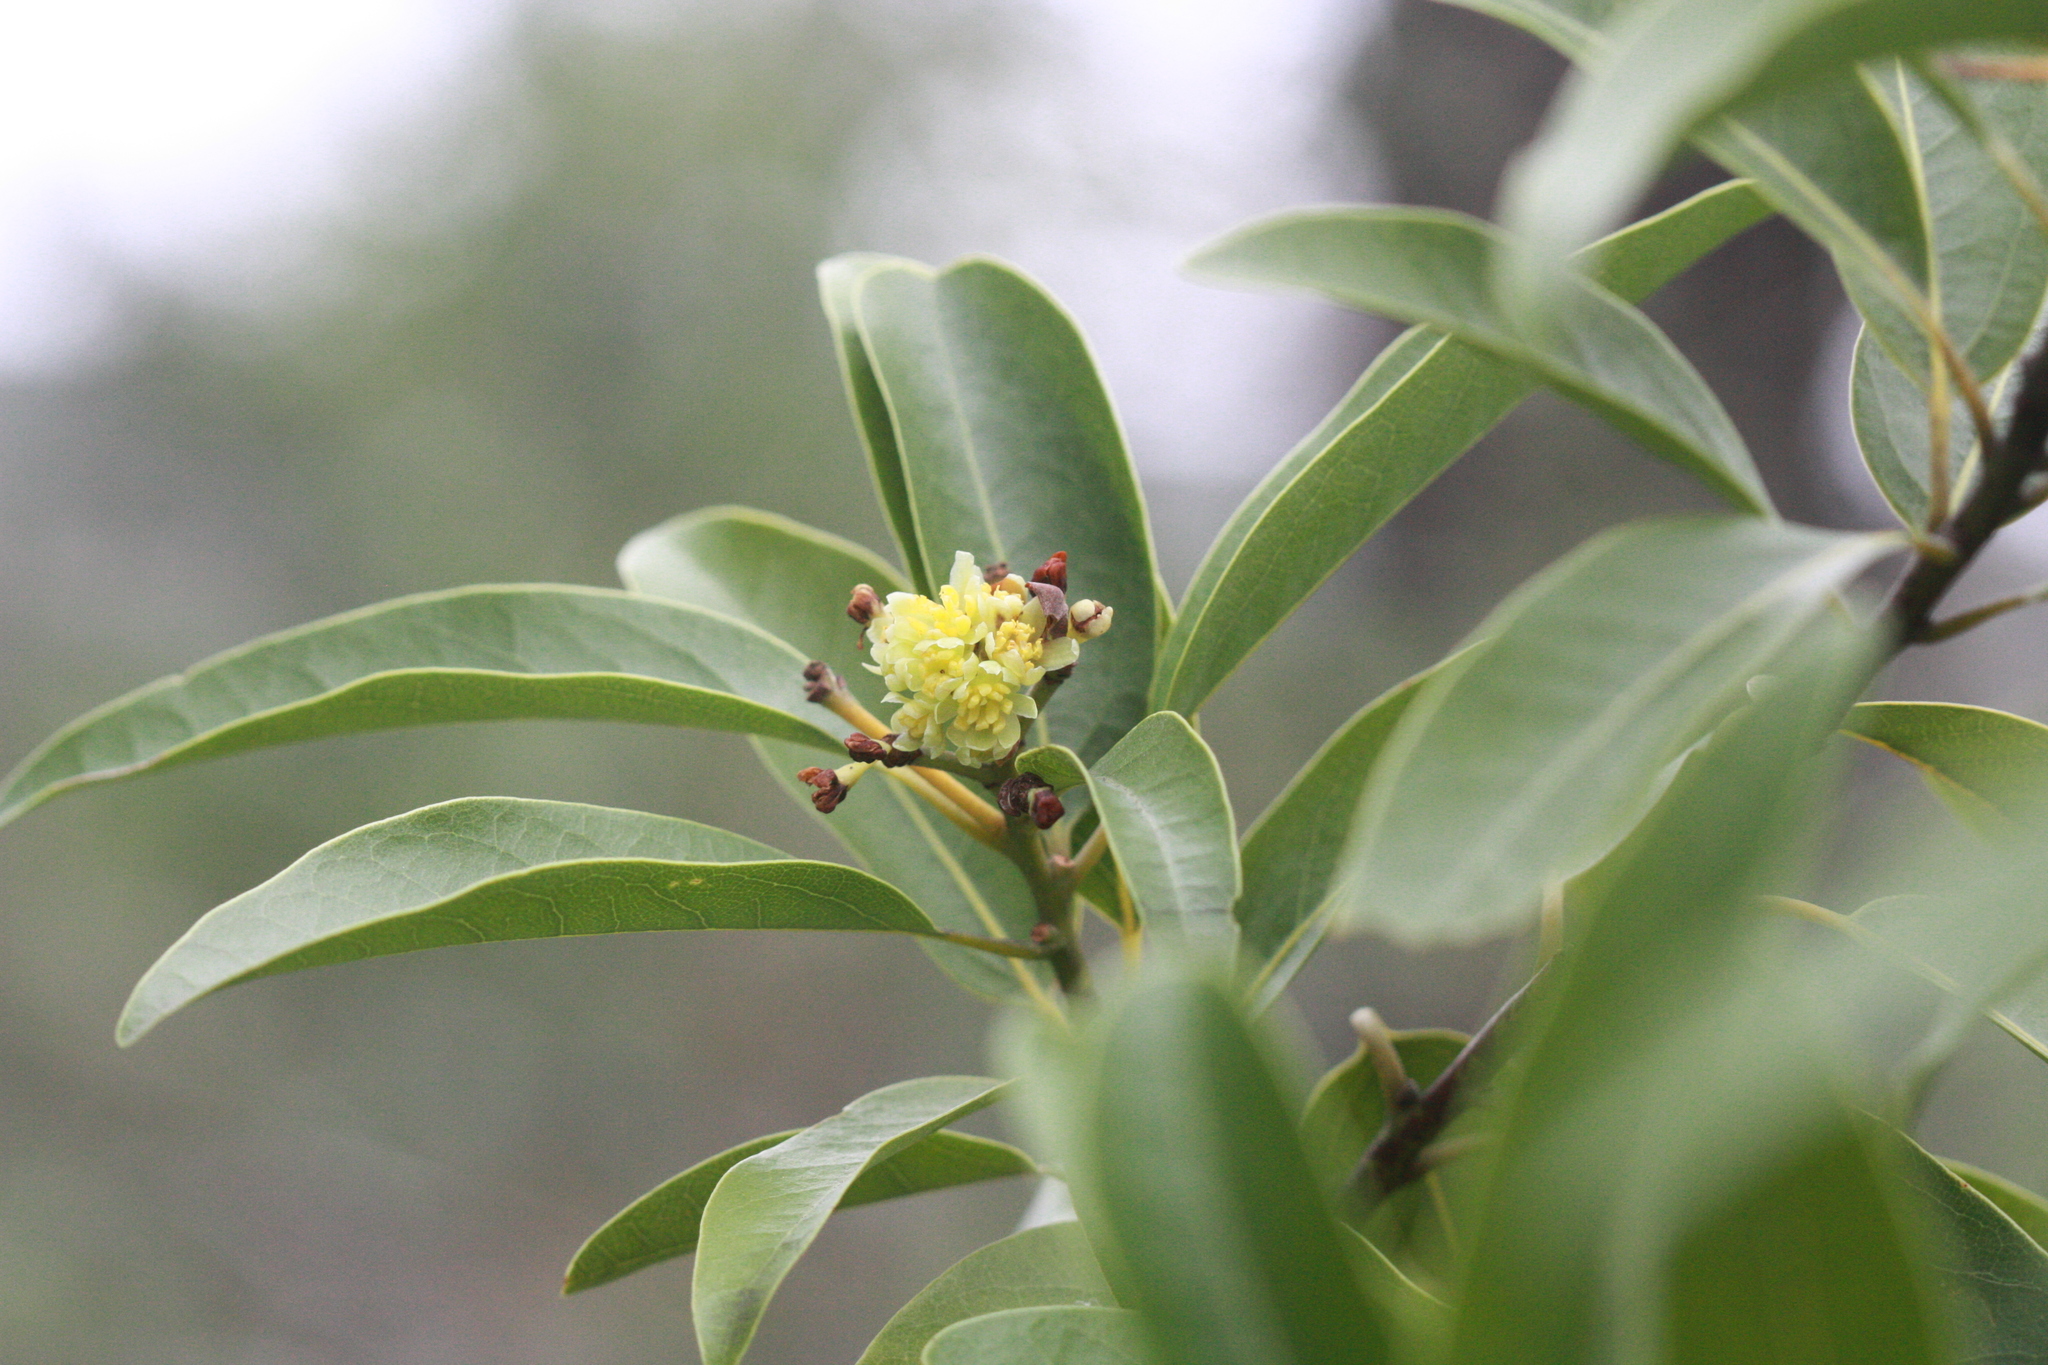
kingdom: Plantae
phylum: Tracheophyta
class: Magnoliopsida
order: Laurales
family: Lauraceae
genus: Umbellularia
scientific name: Umbellularia californica
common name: California bay
